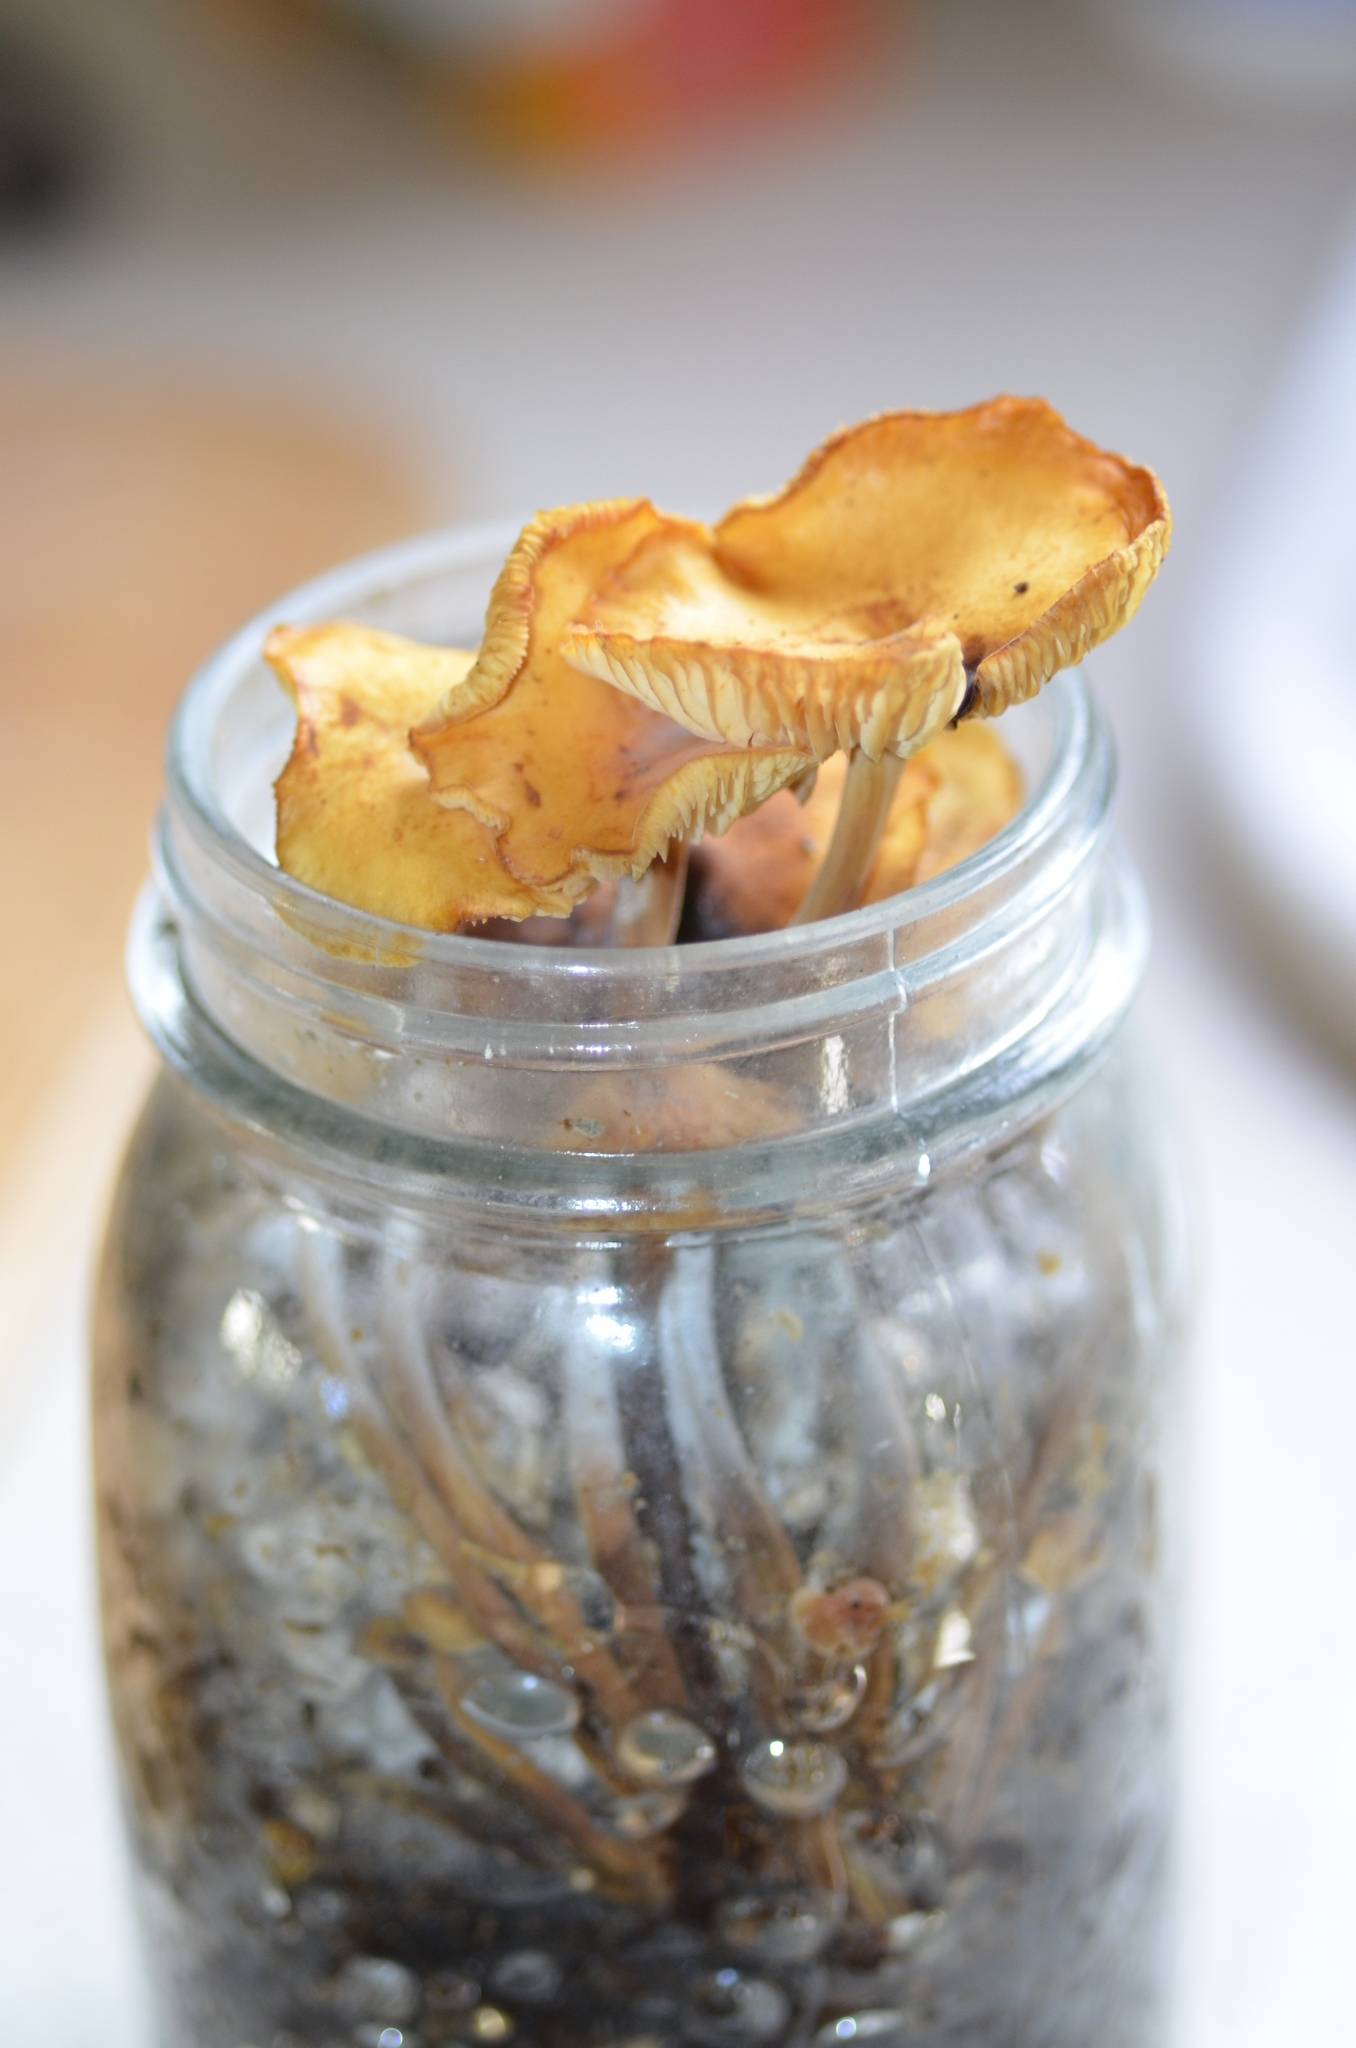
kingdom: Fungi
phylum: Basidiomycota
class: Agaricomycetes
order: Agaricales
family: Physalacriaceae
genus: Flammulina
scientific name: Flammulina velutipes
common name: Velvet shank
